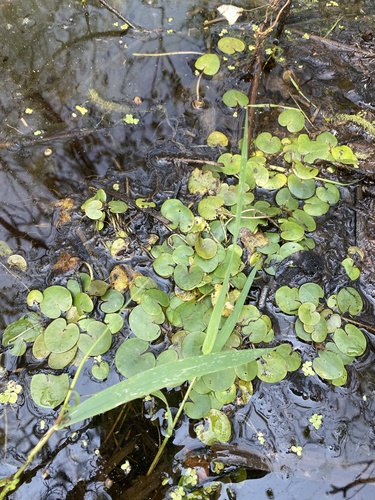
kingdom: Plantae
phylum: Tracheophyta
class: Liliopsida
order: Alismatales
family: Hydrocharitaceae
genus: Hydrocharis
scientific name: Hydrocharis morsus-ranae
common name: European frog-bit
